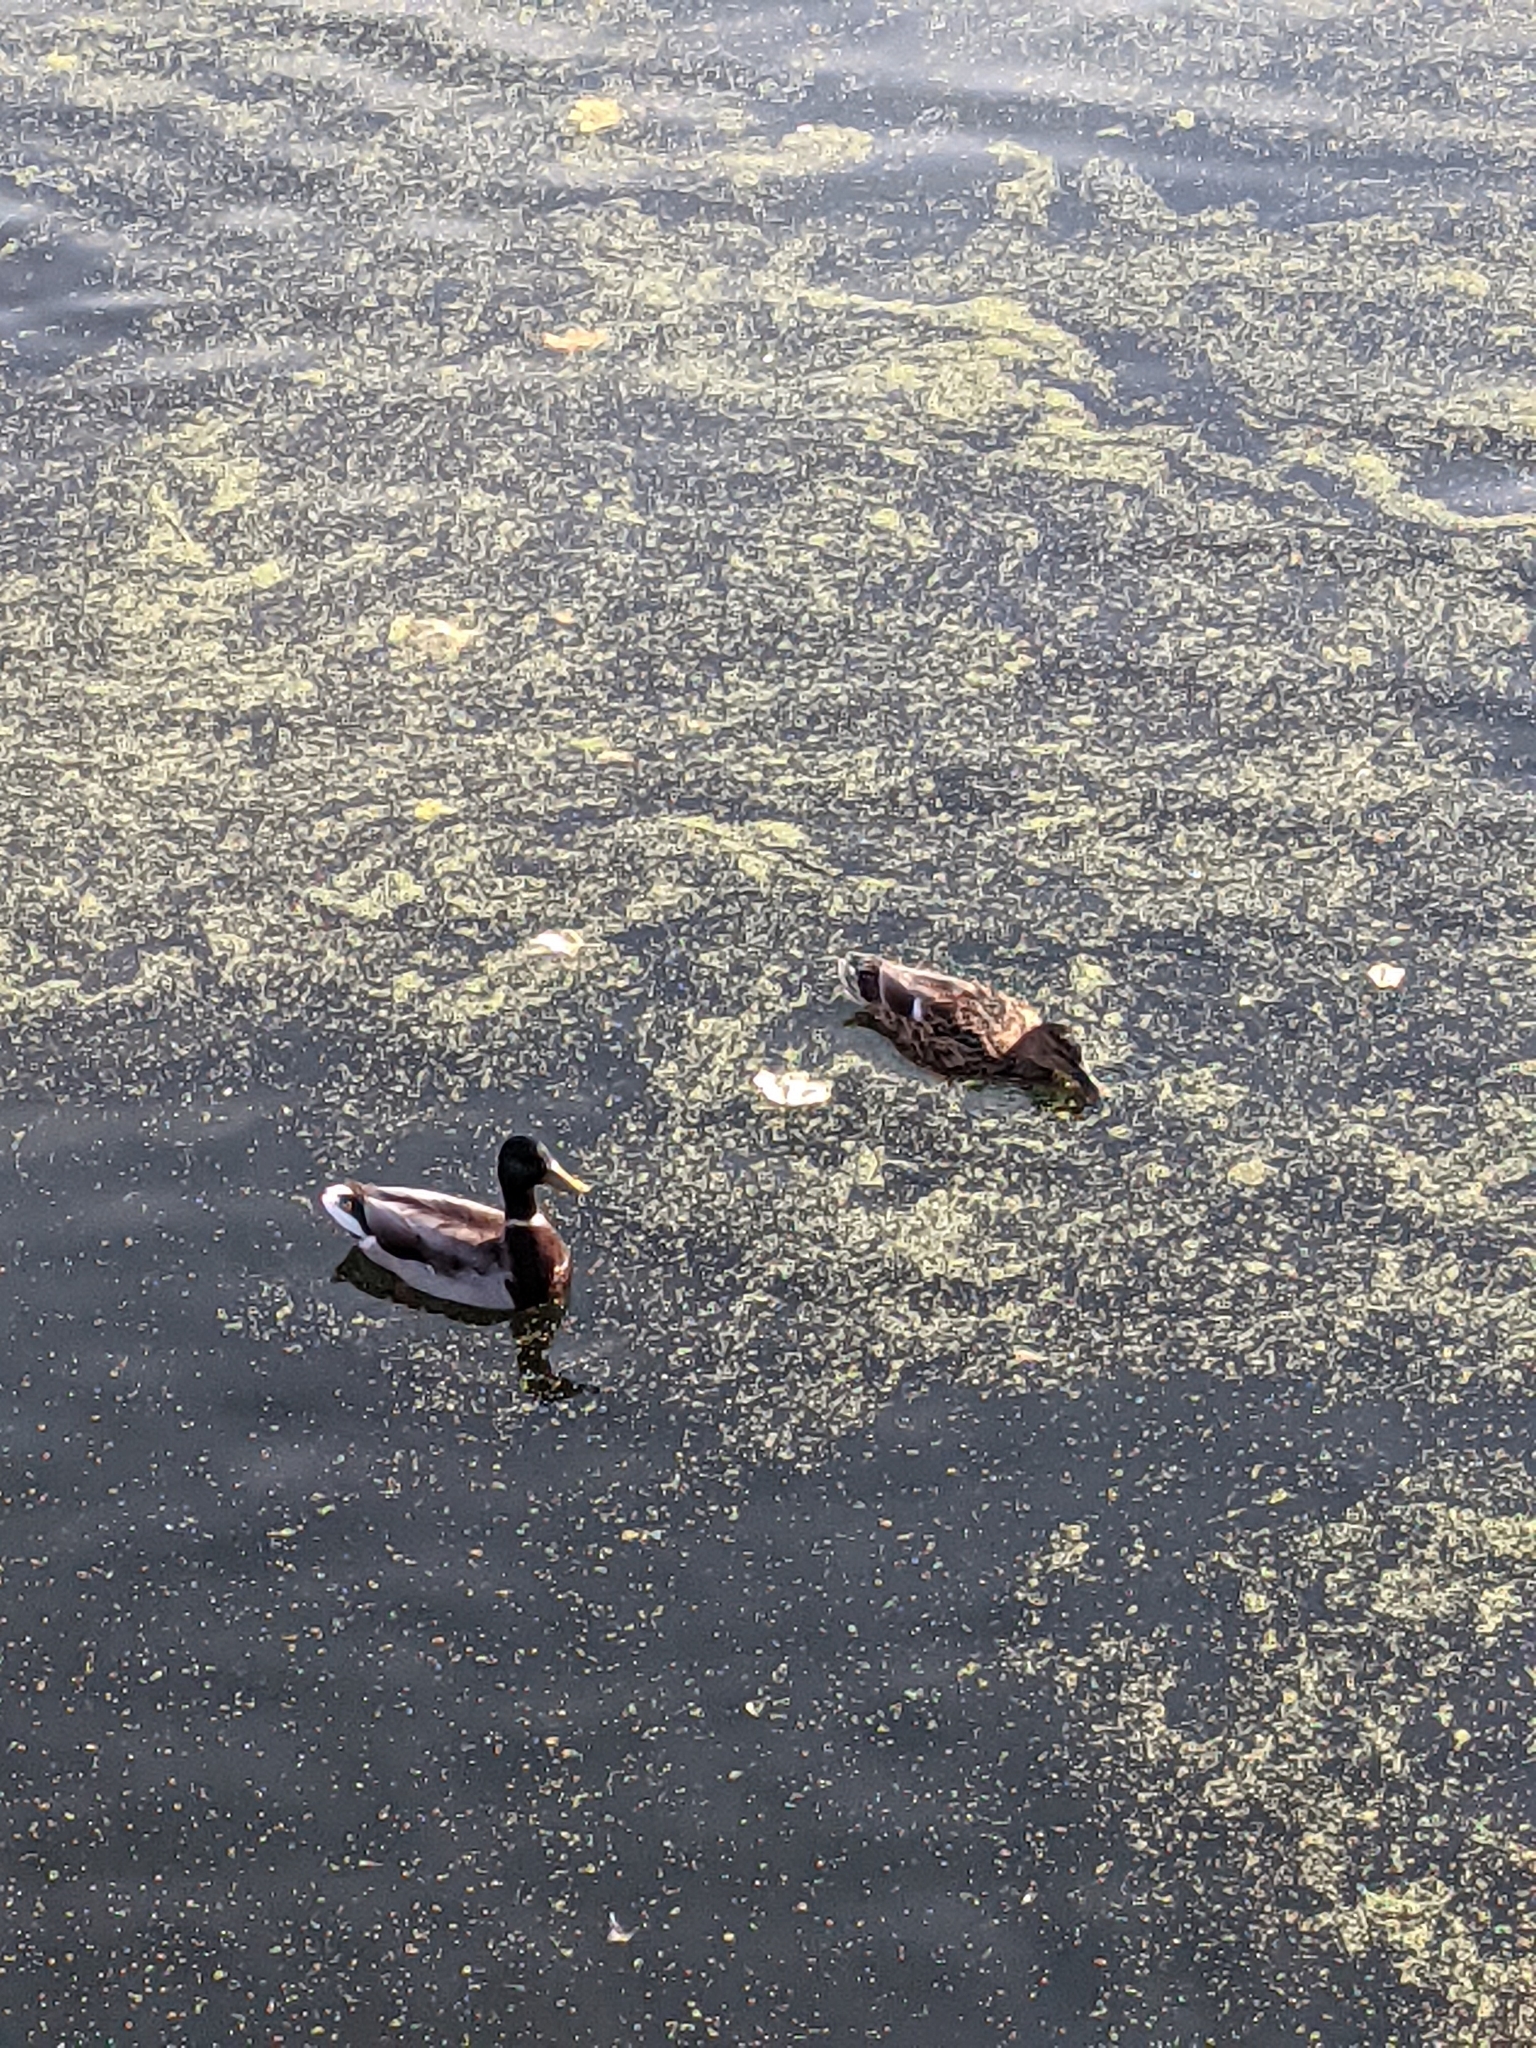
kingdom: Animalia
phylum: Chordata
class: Aves
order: Anseriformes
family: Anatidae
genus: Anas
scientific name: Anas platyrhynchos
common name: Mallard
